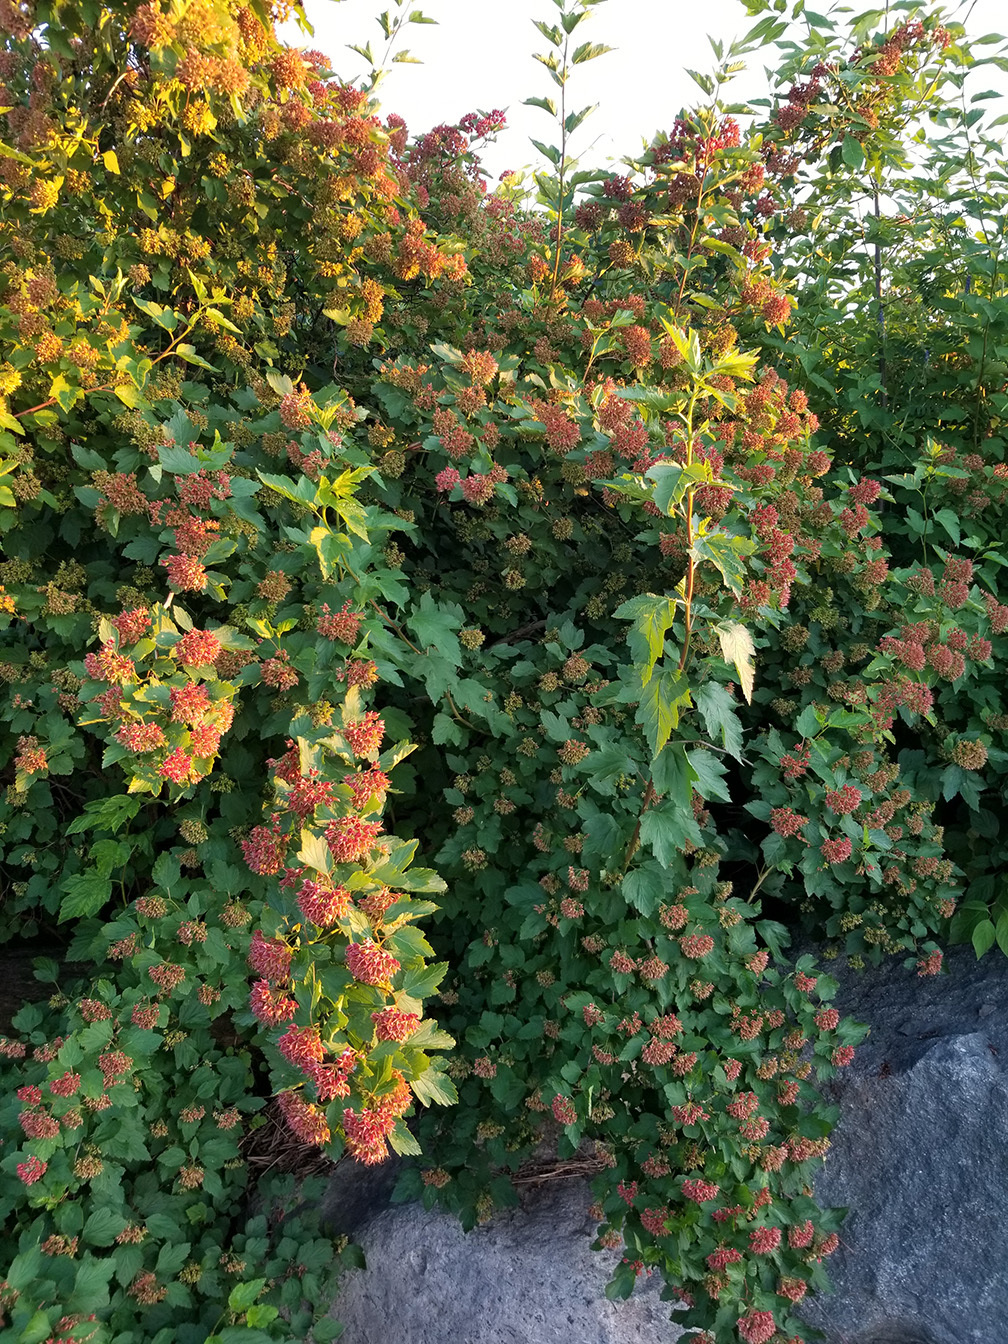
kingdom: Plantae
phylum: Tracheophyta
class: Magnoliopsida
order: Rosales
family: Rosaceae
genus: Physocarpus
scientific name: Physocarpus opulifolius
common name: Ninebark
